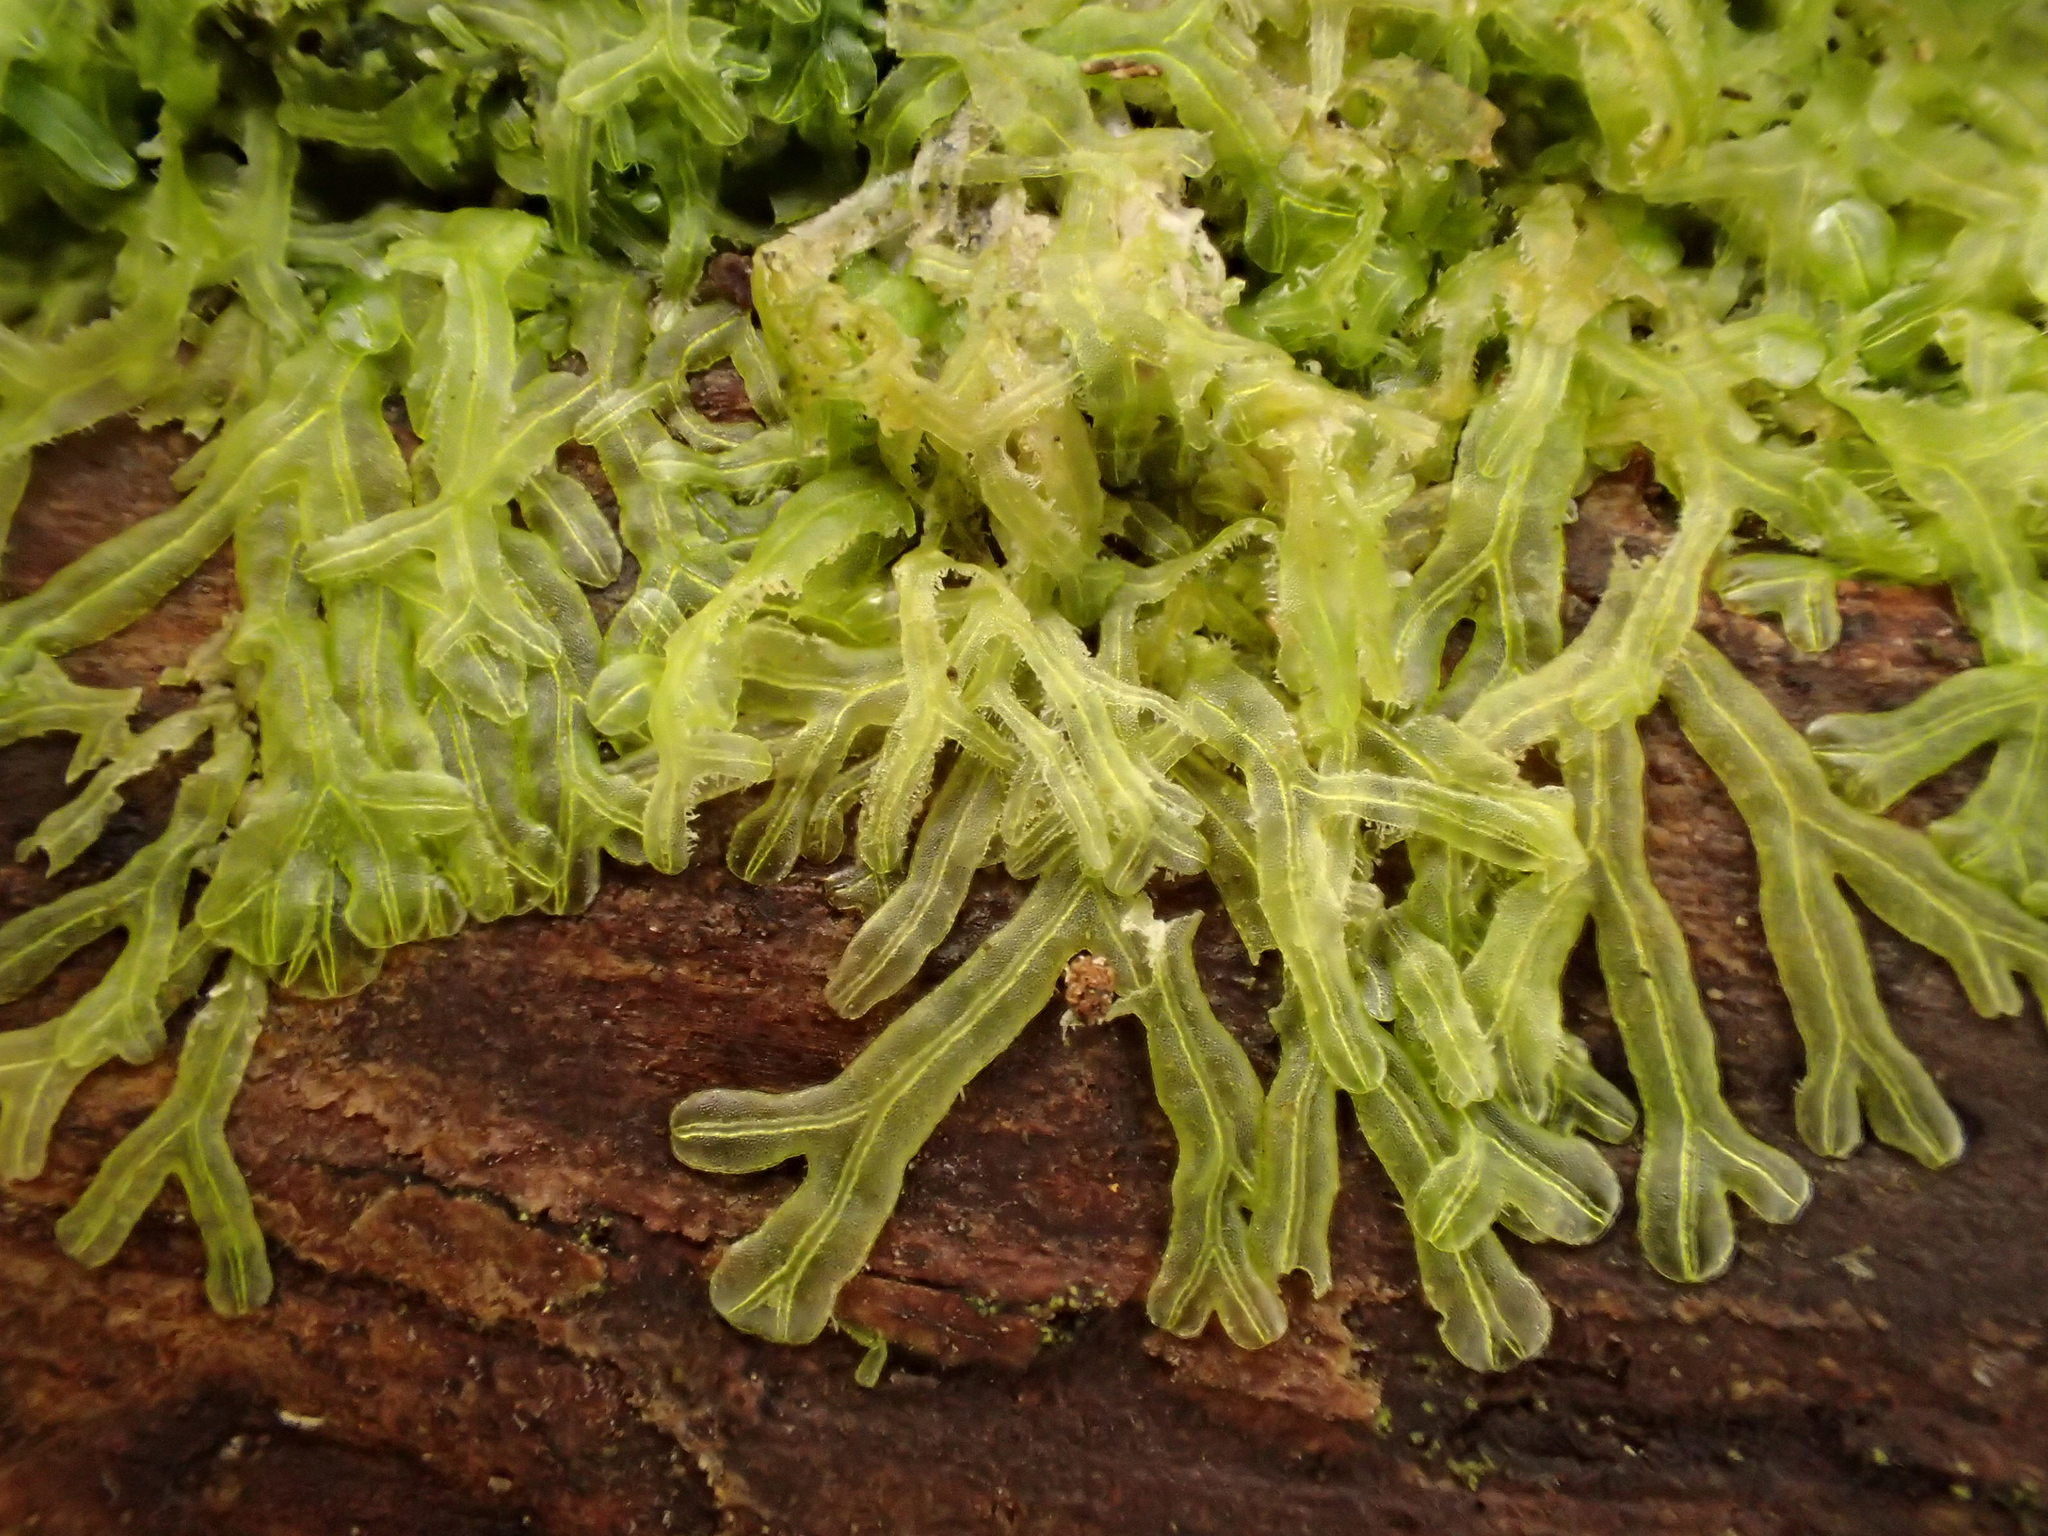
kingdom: Plantae
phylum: Marchantiophyta
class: Jungermanniopsida
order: Metzgeriales
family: Metzgeriaceae
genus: Metzgeria
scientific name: Metzgeria furcata
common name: Forked veilwort
